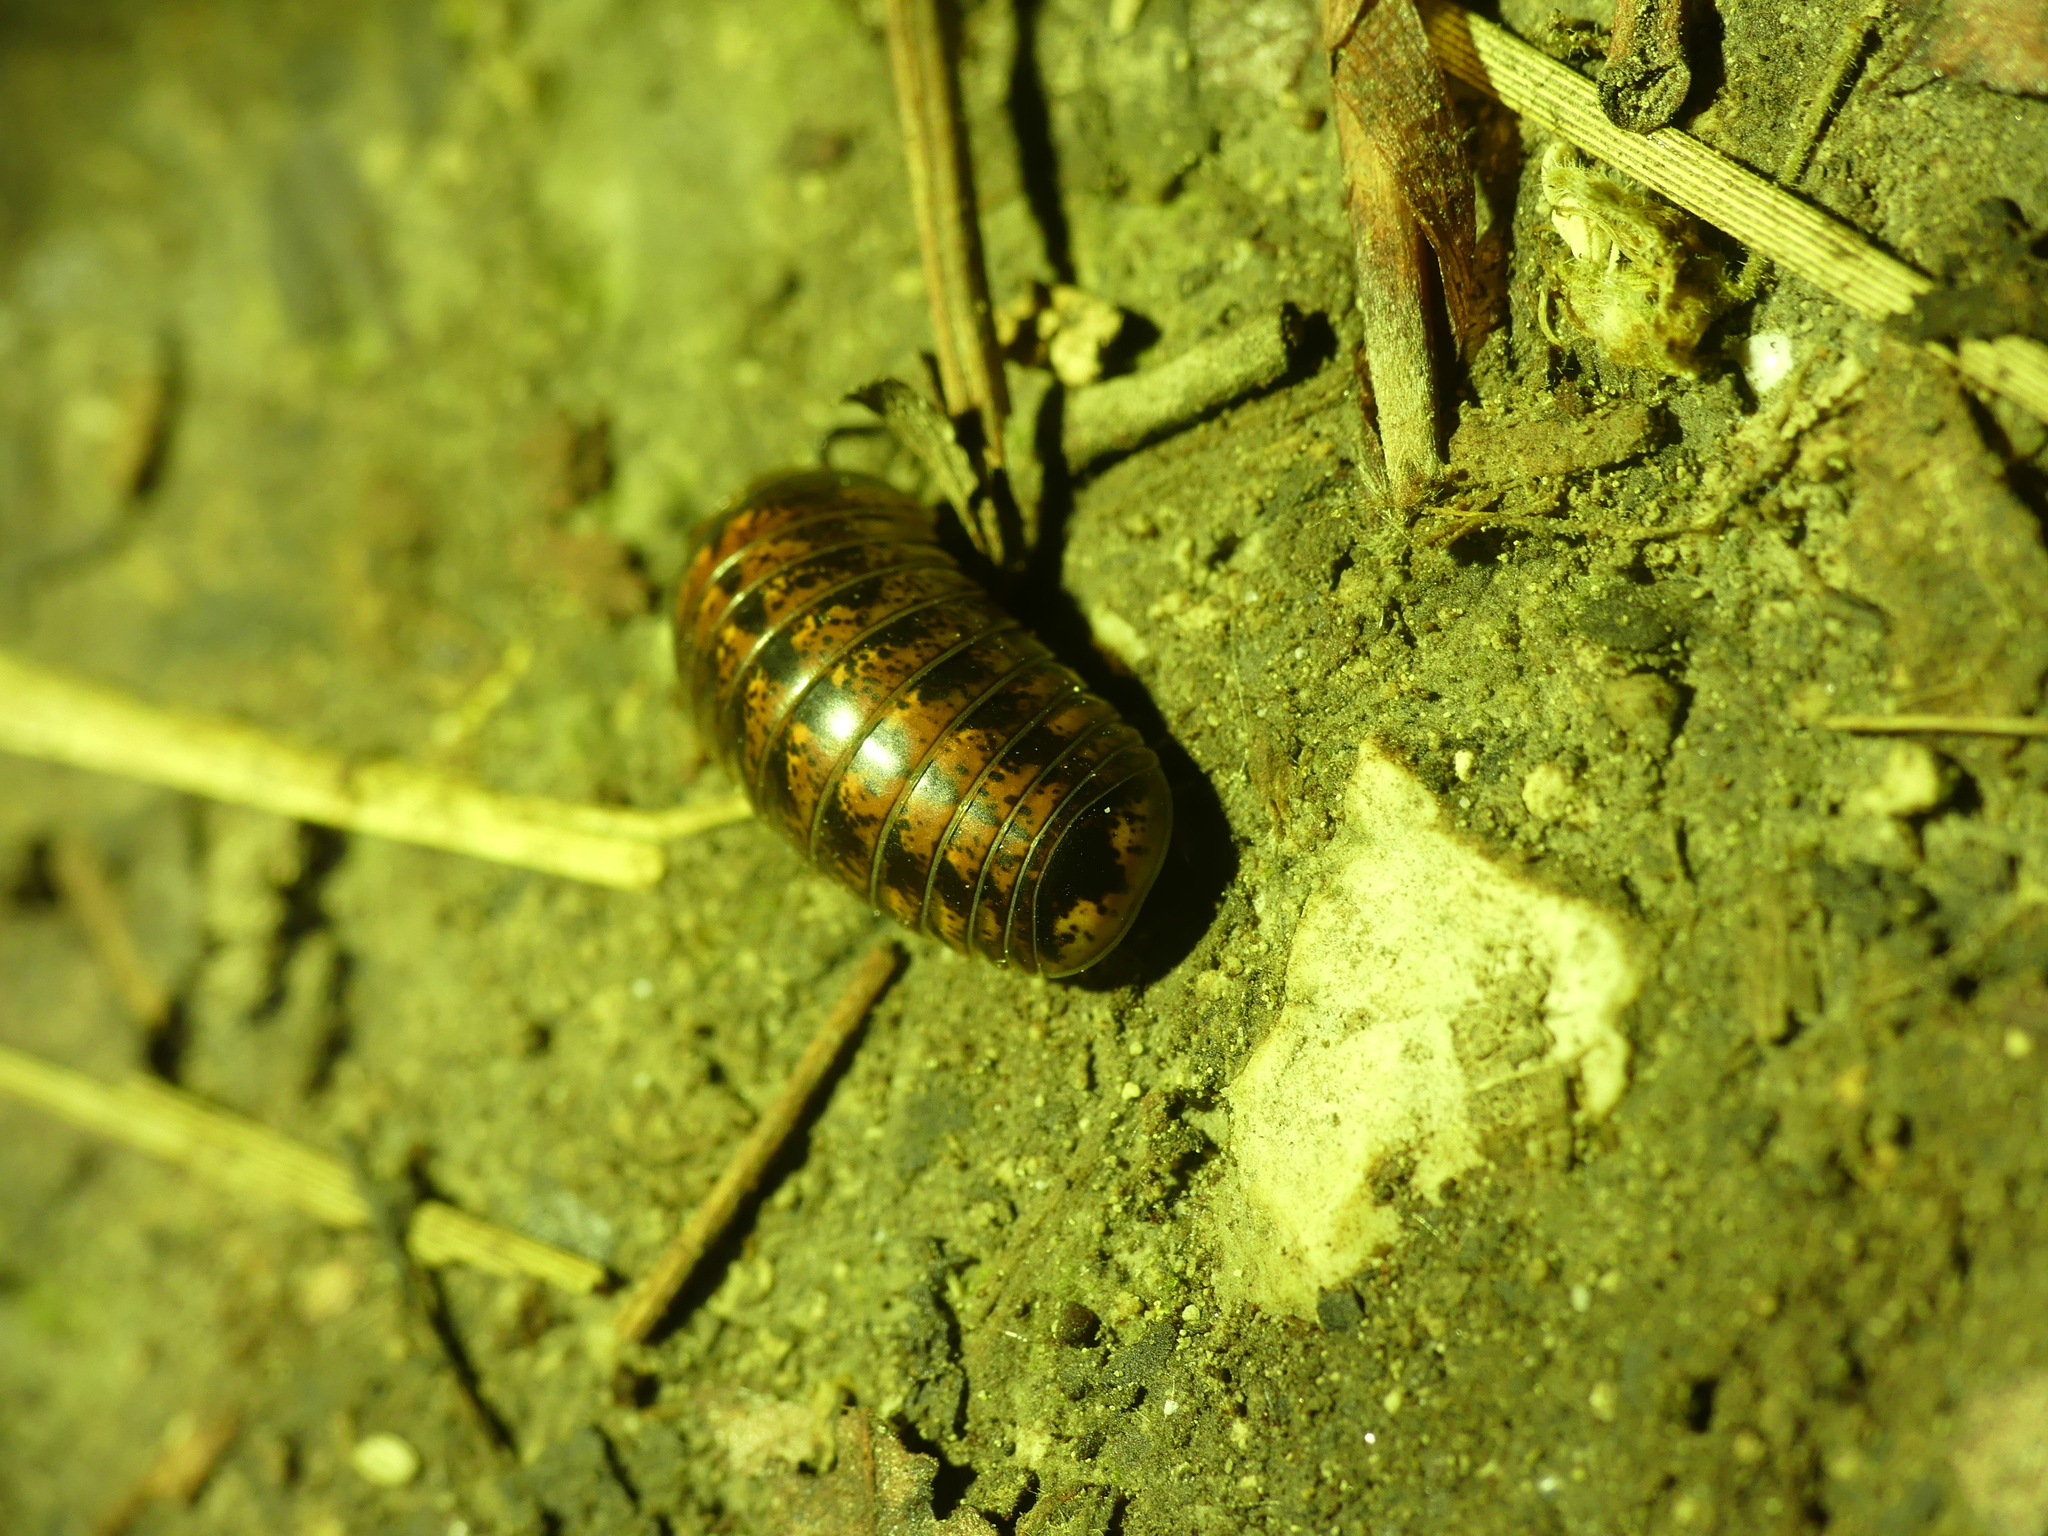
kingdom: Animalia
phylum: Arthropoda
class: Diplopoda
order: Glomerida
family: Glomeridae
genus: Glomeris
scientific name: Glomeris klugii
